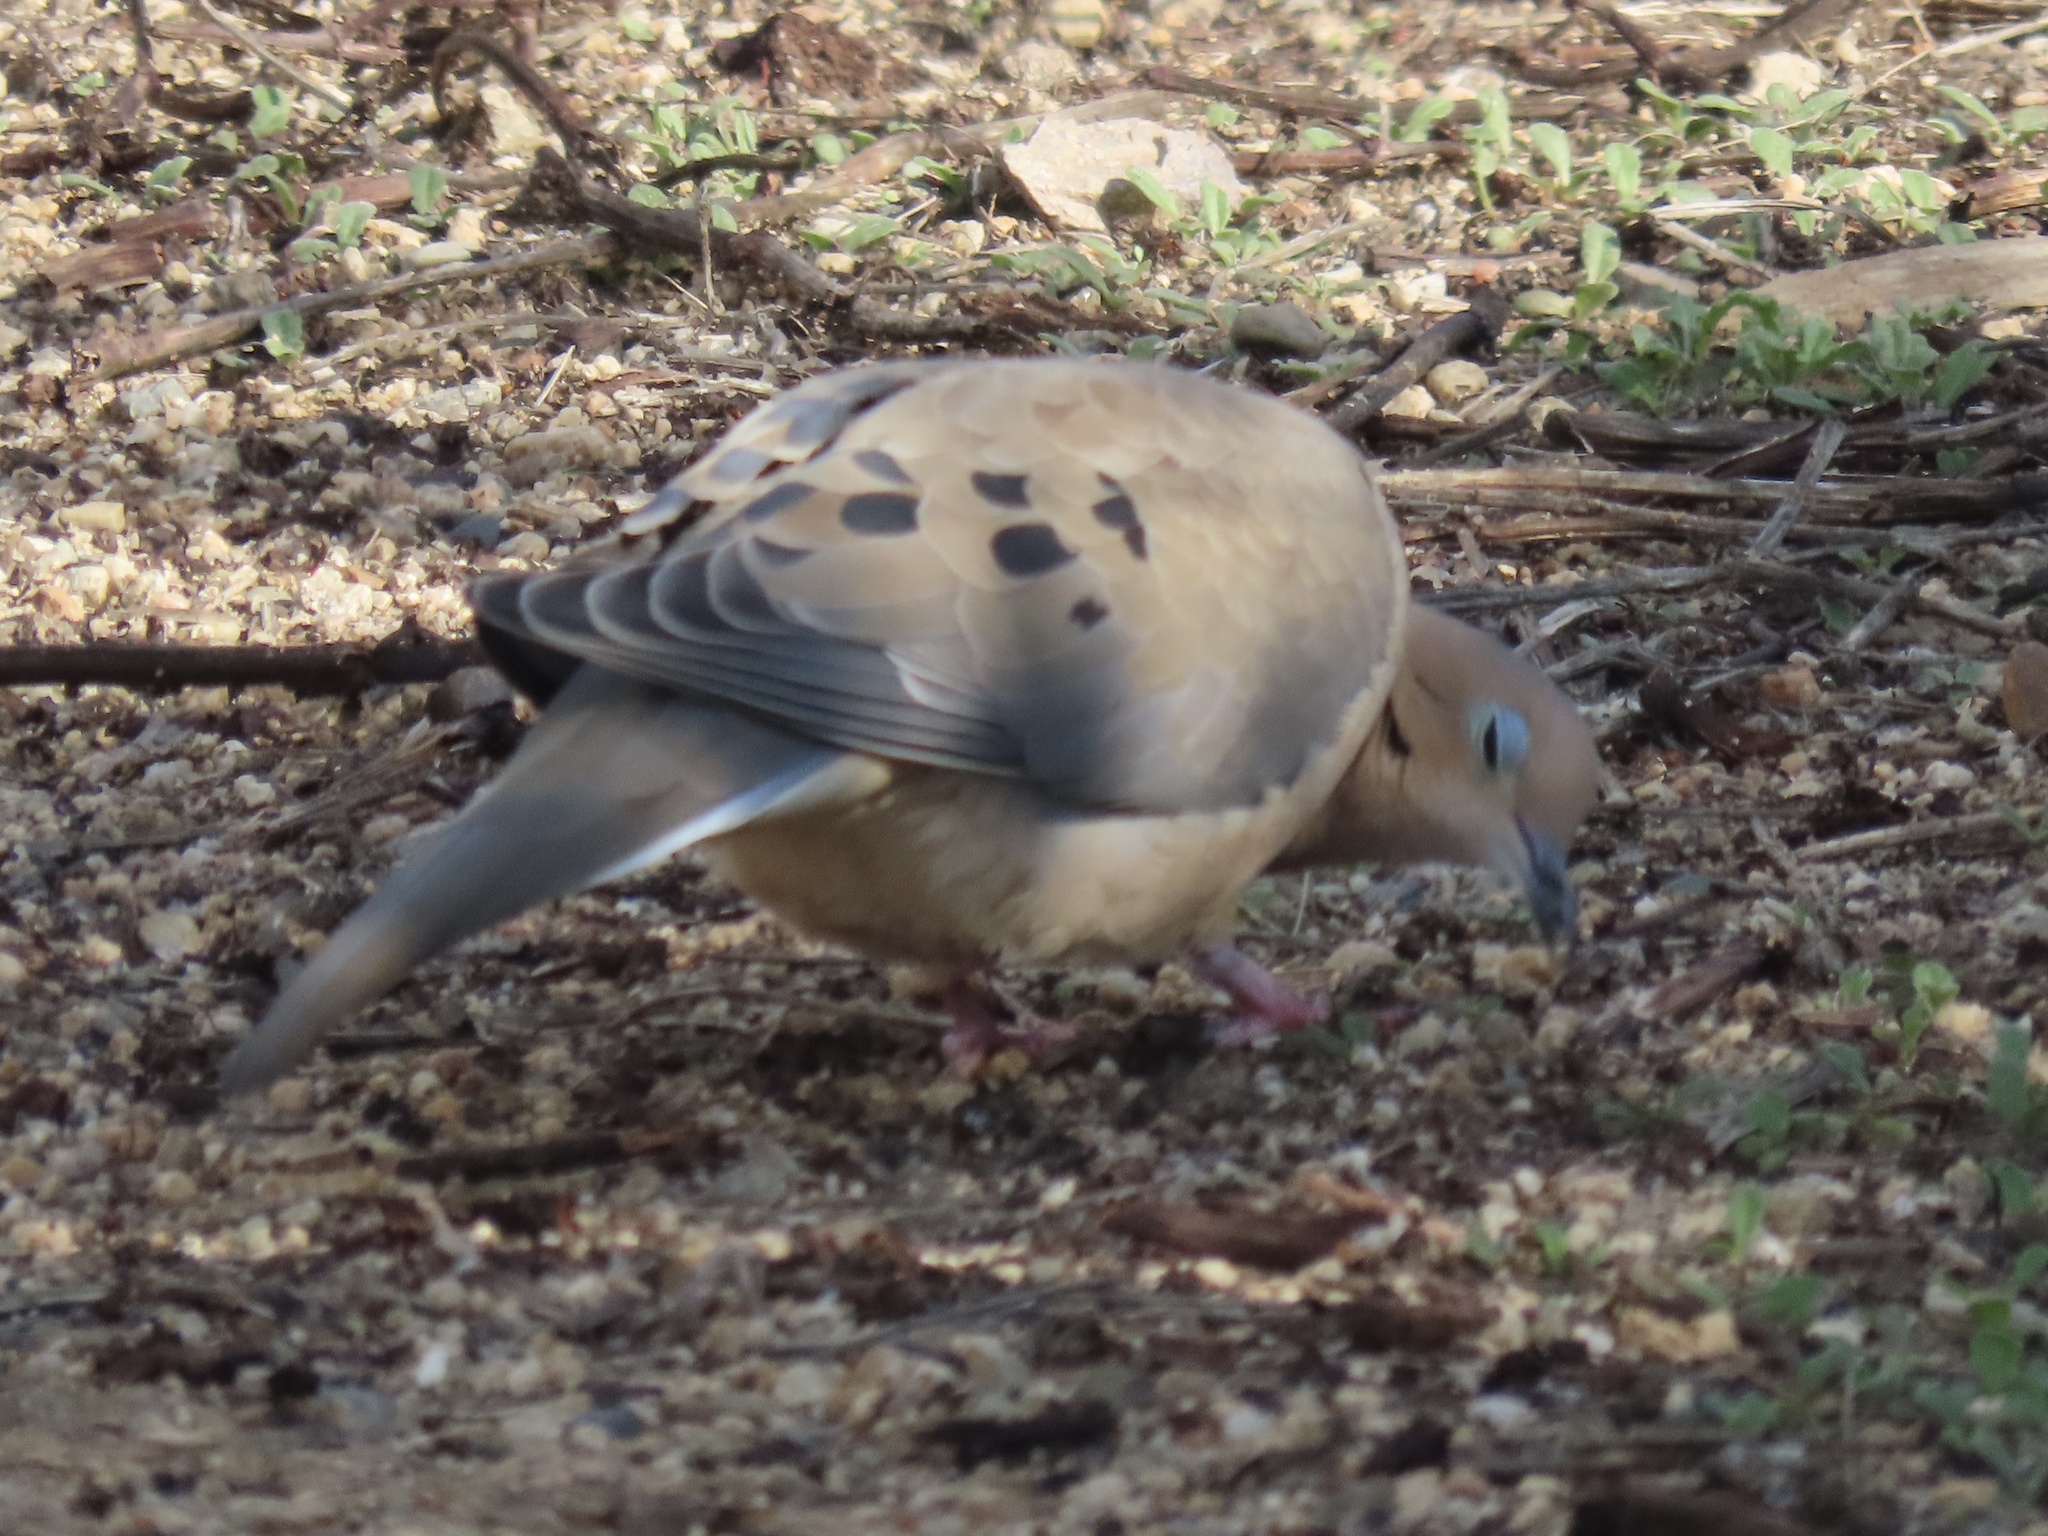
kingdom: Animalia
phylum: Chordata
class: Aves
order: Columbiformes
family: Columbidae
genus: Zenaida
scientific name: Zenaida macroura
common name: Mourning dove
